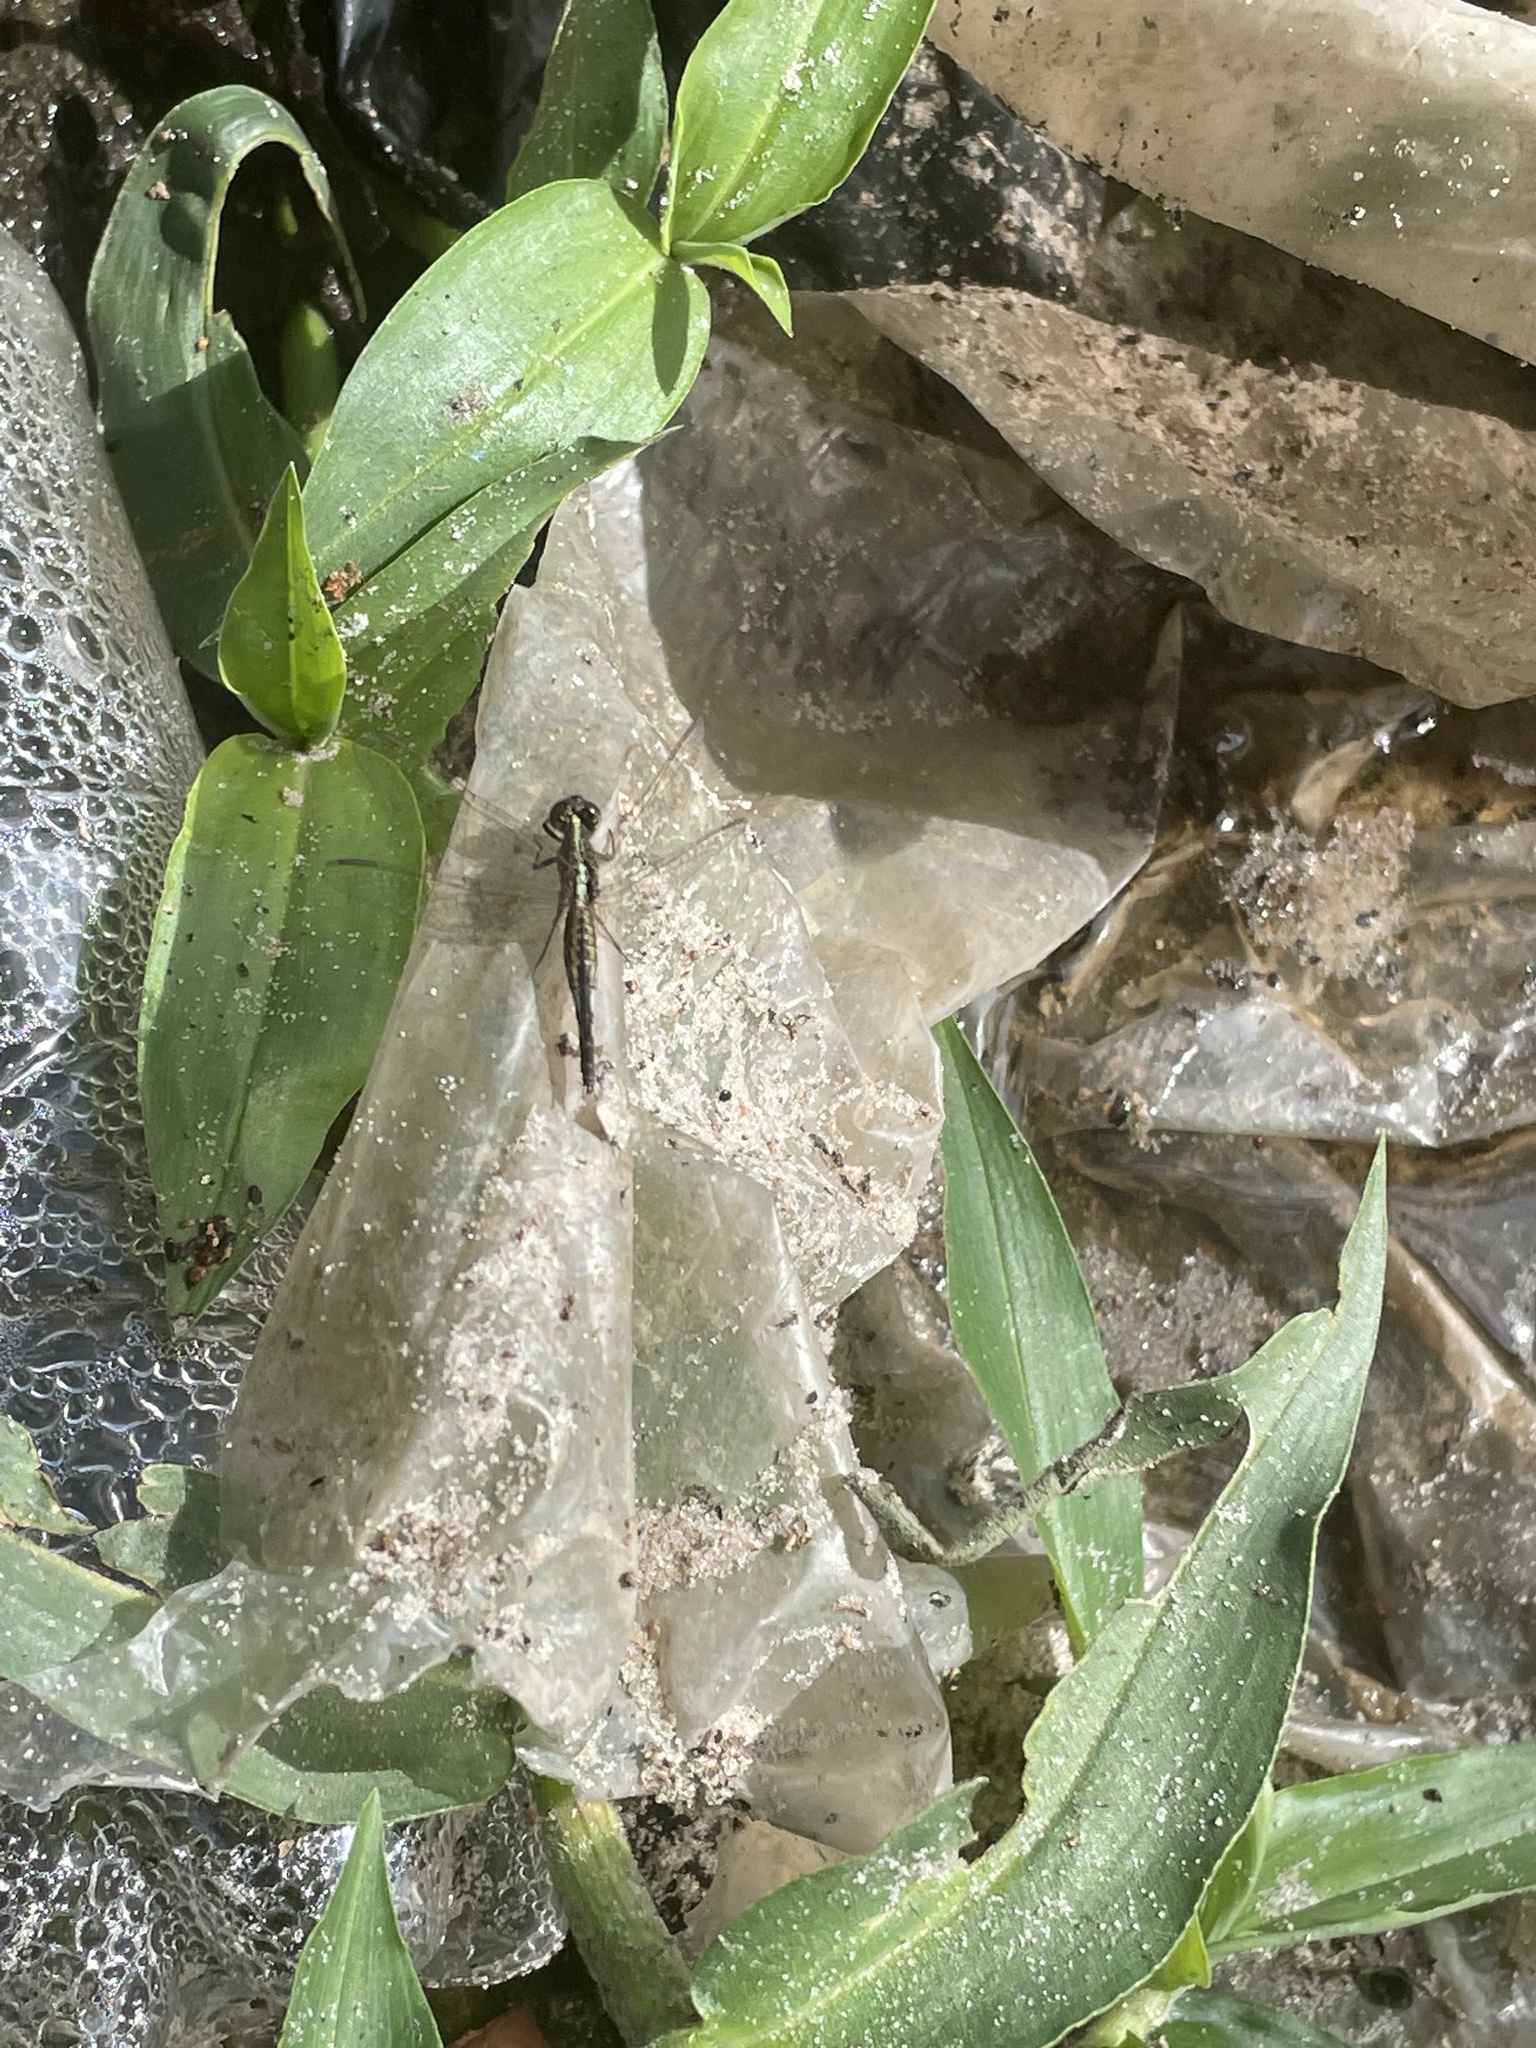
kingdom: Animalia
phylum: Arthropoda
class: Insecta
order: Odonata
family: Libellulidae
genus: Acisoma
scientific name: Acisoma inflatum
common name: Stout pintail
